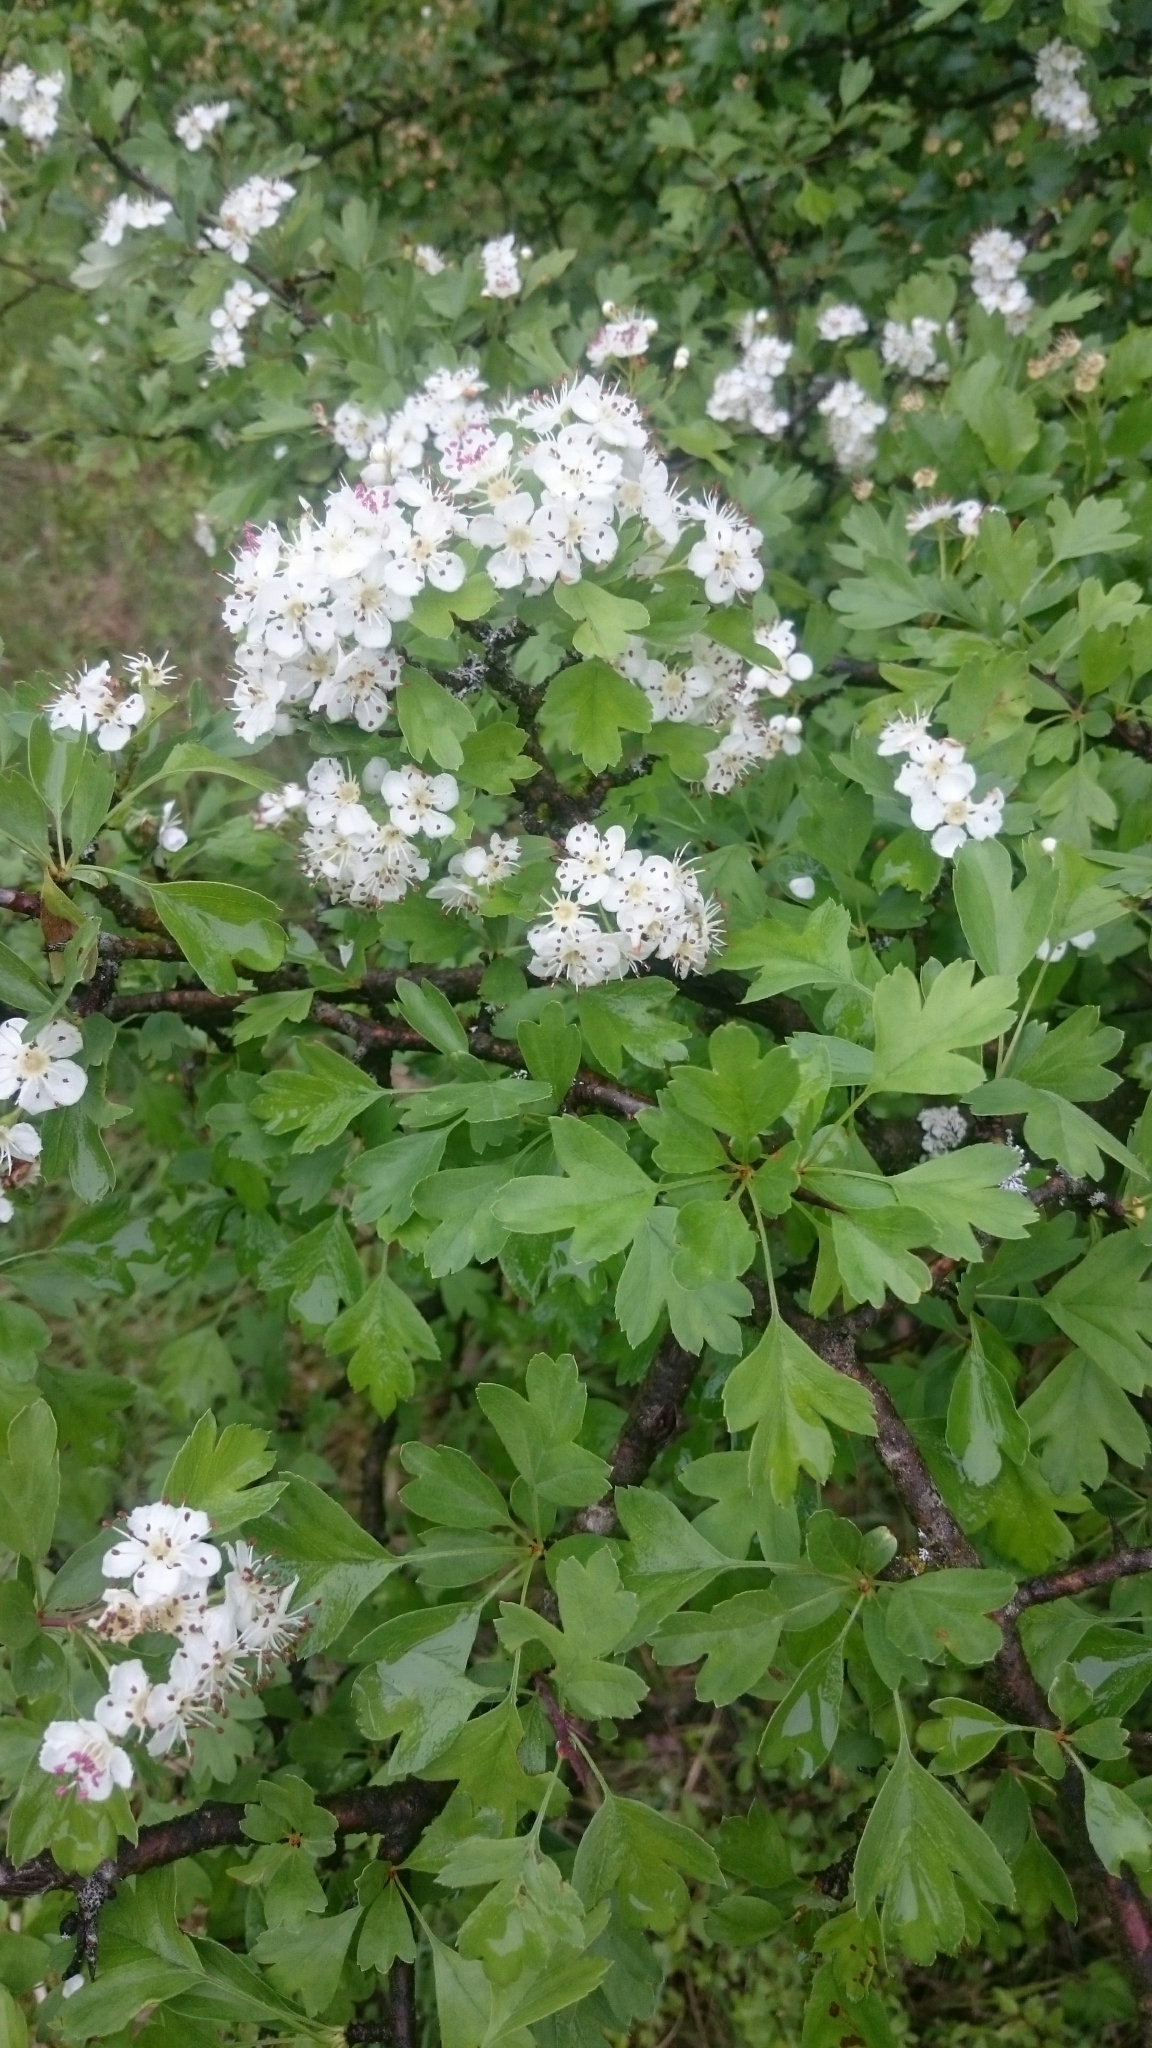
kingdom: Plantae
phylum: Tracheophyta
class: Magnoliopsida
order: Rosales
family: Rosaceae
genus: Crataegus
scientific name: Crataegus monogyna
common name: Hawthorn
